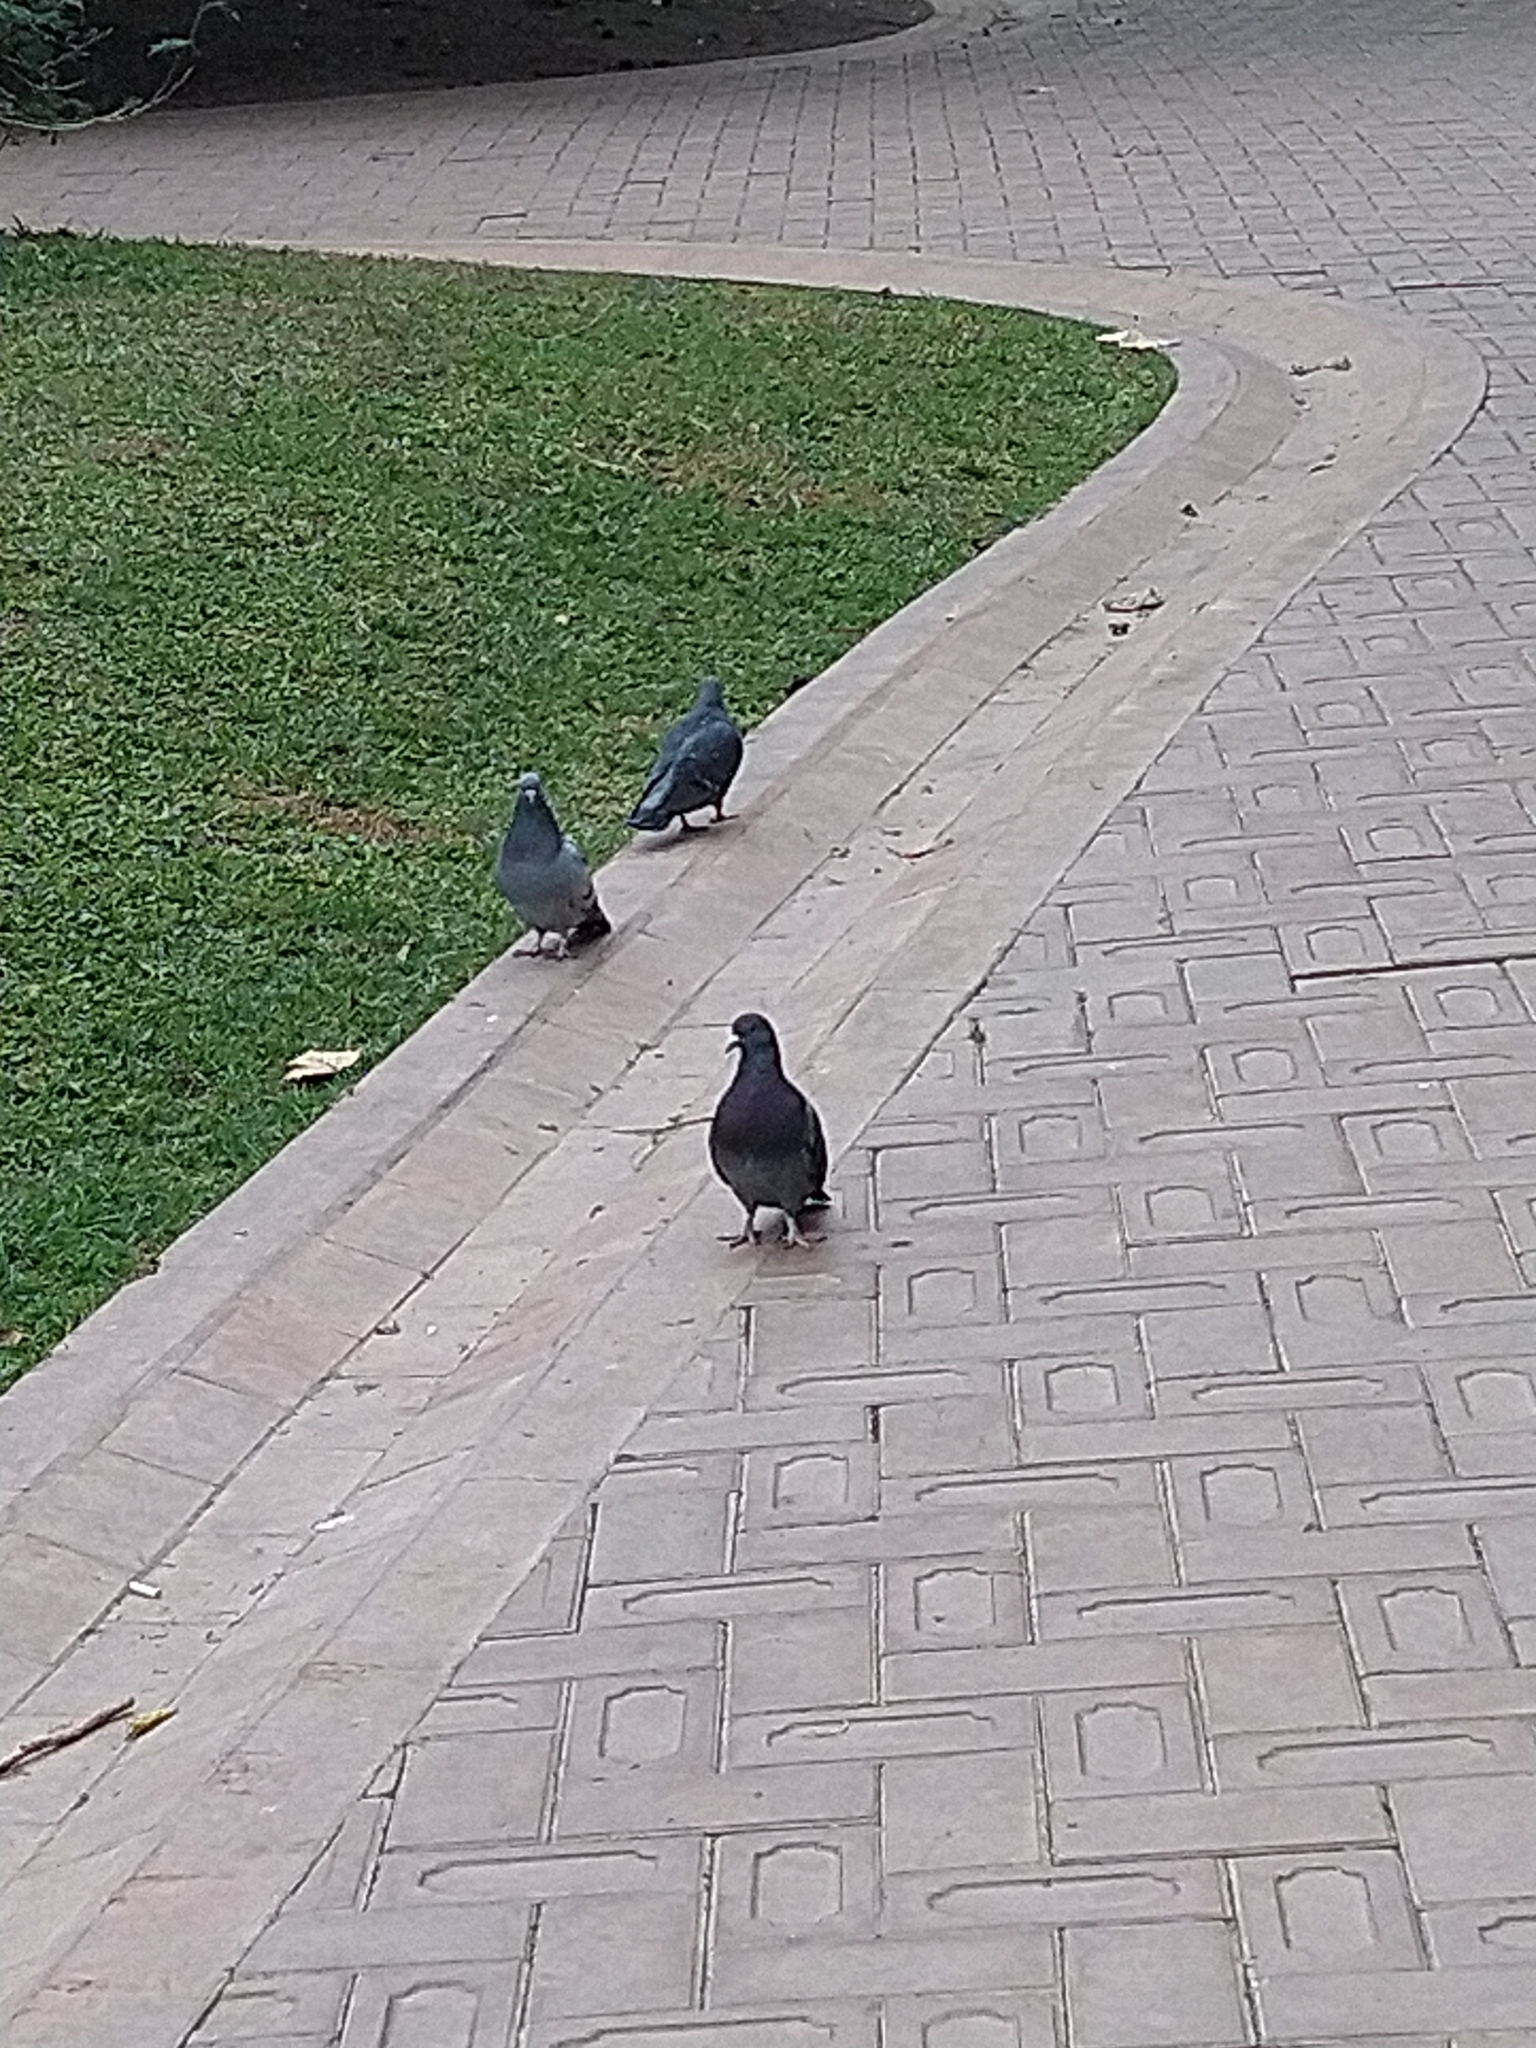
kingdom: Animalia
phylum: Chordata
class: Aves
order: Columbiformes
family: Columbidae
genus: Columba
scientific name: Columba livia
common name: Rock pigeon
